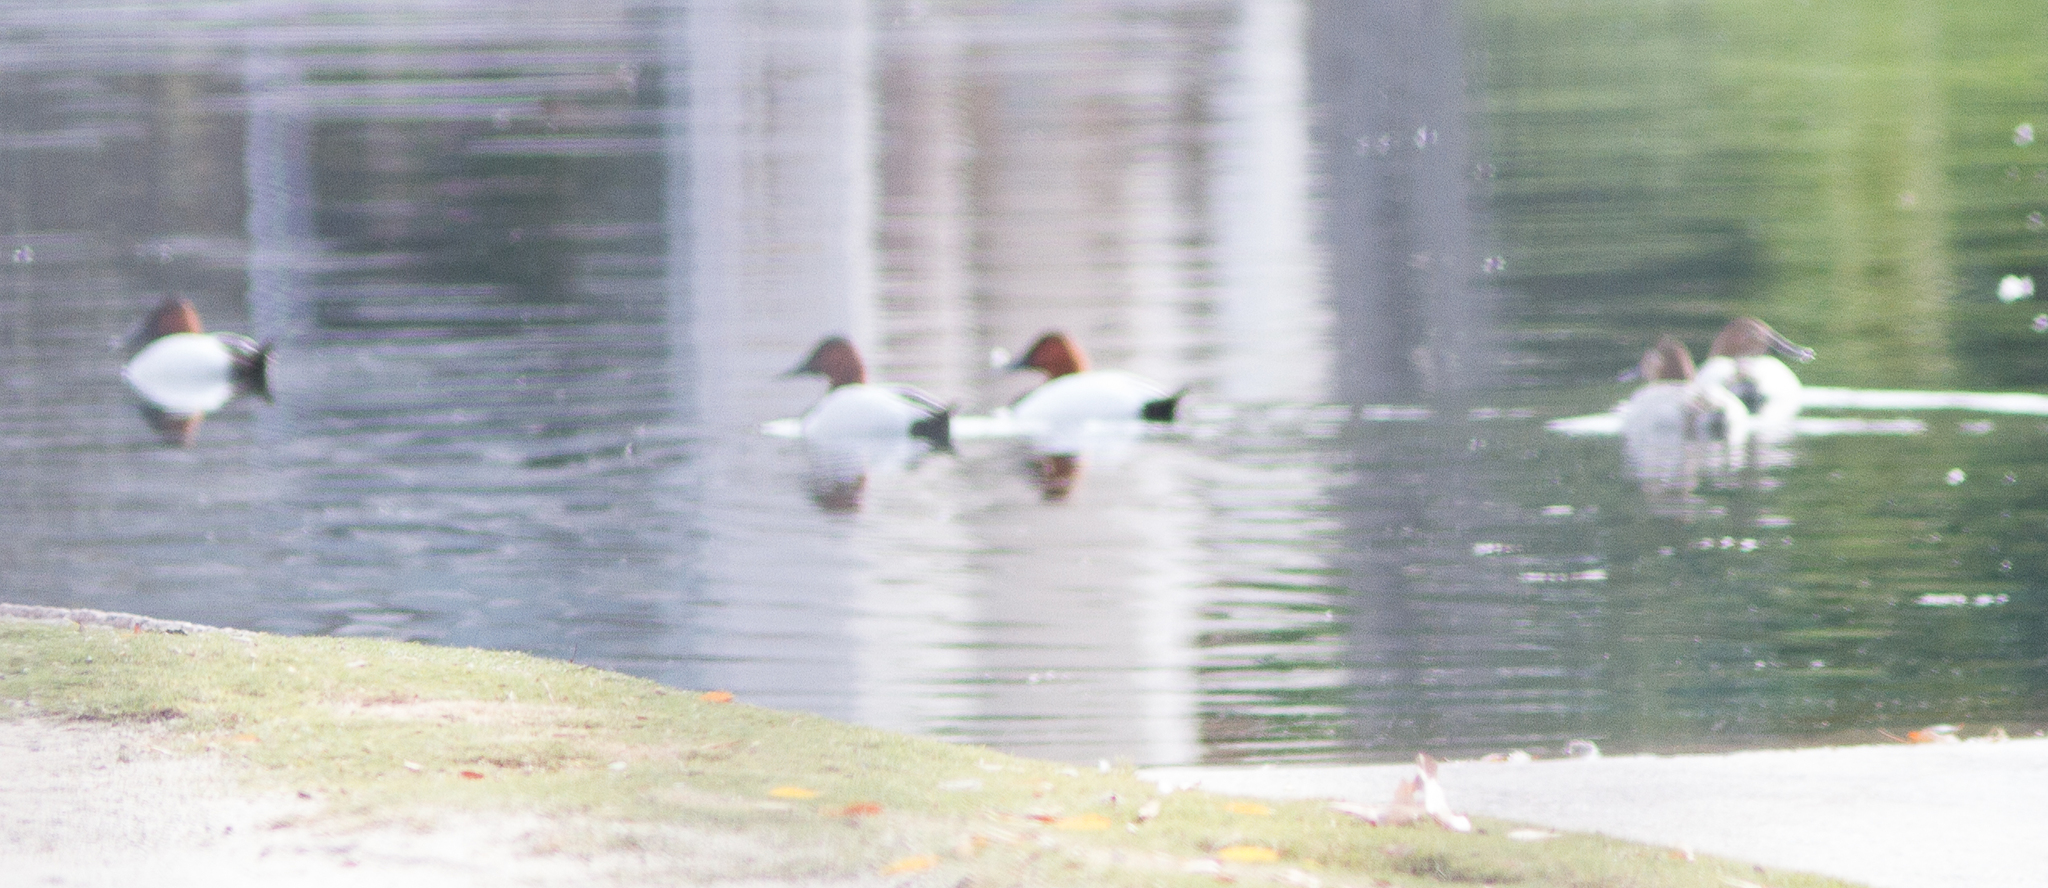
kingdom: Animalia
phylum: Chordata
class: Aves
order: Anseriformes
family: Anatidae
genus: Aythya
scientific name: Aythya valisineria
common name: Canvasback
